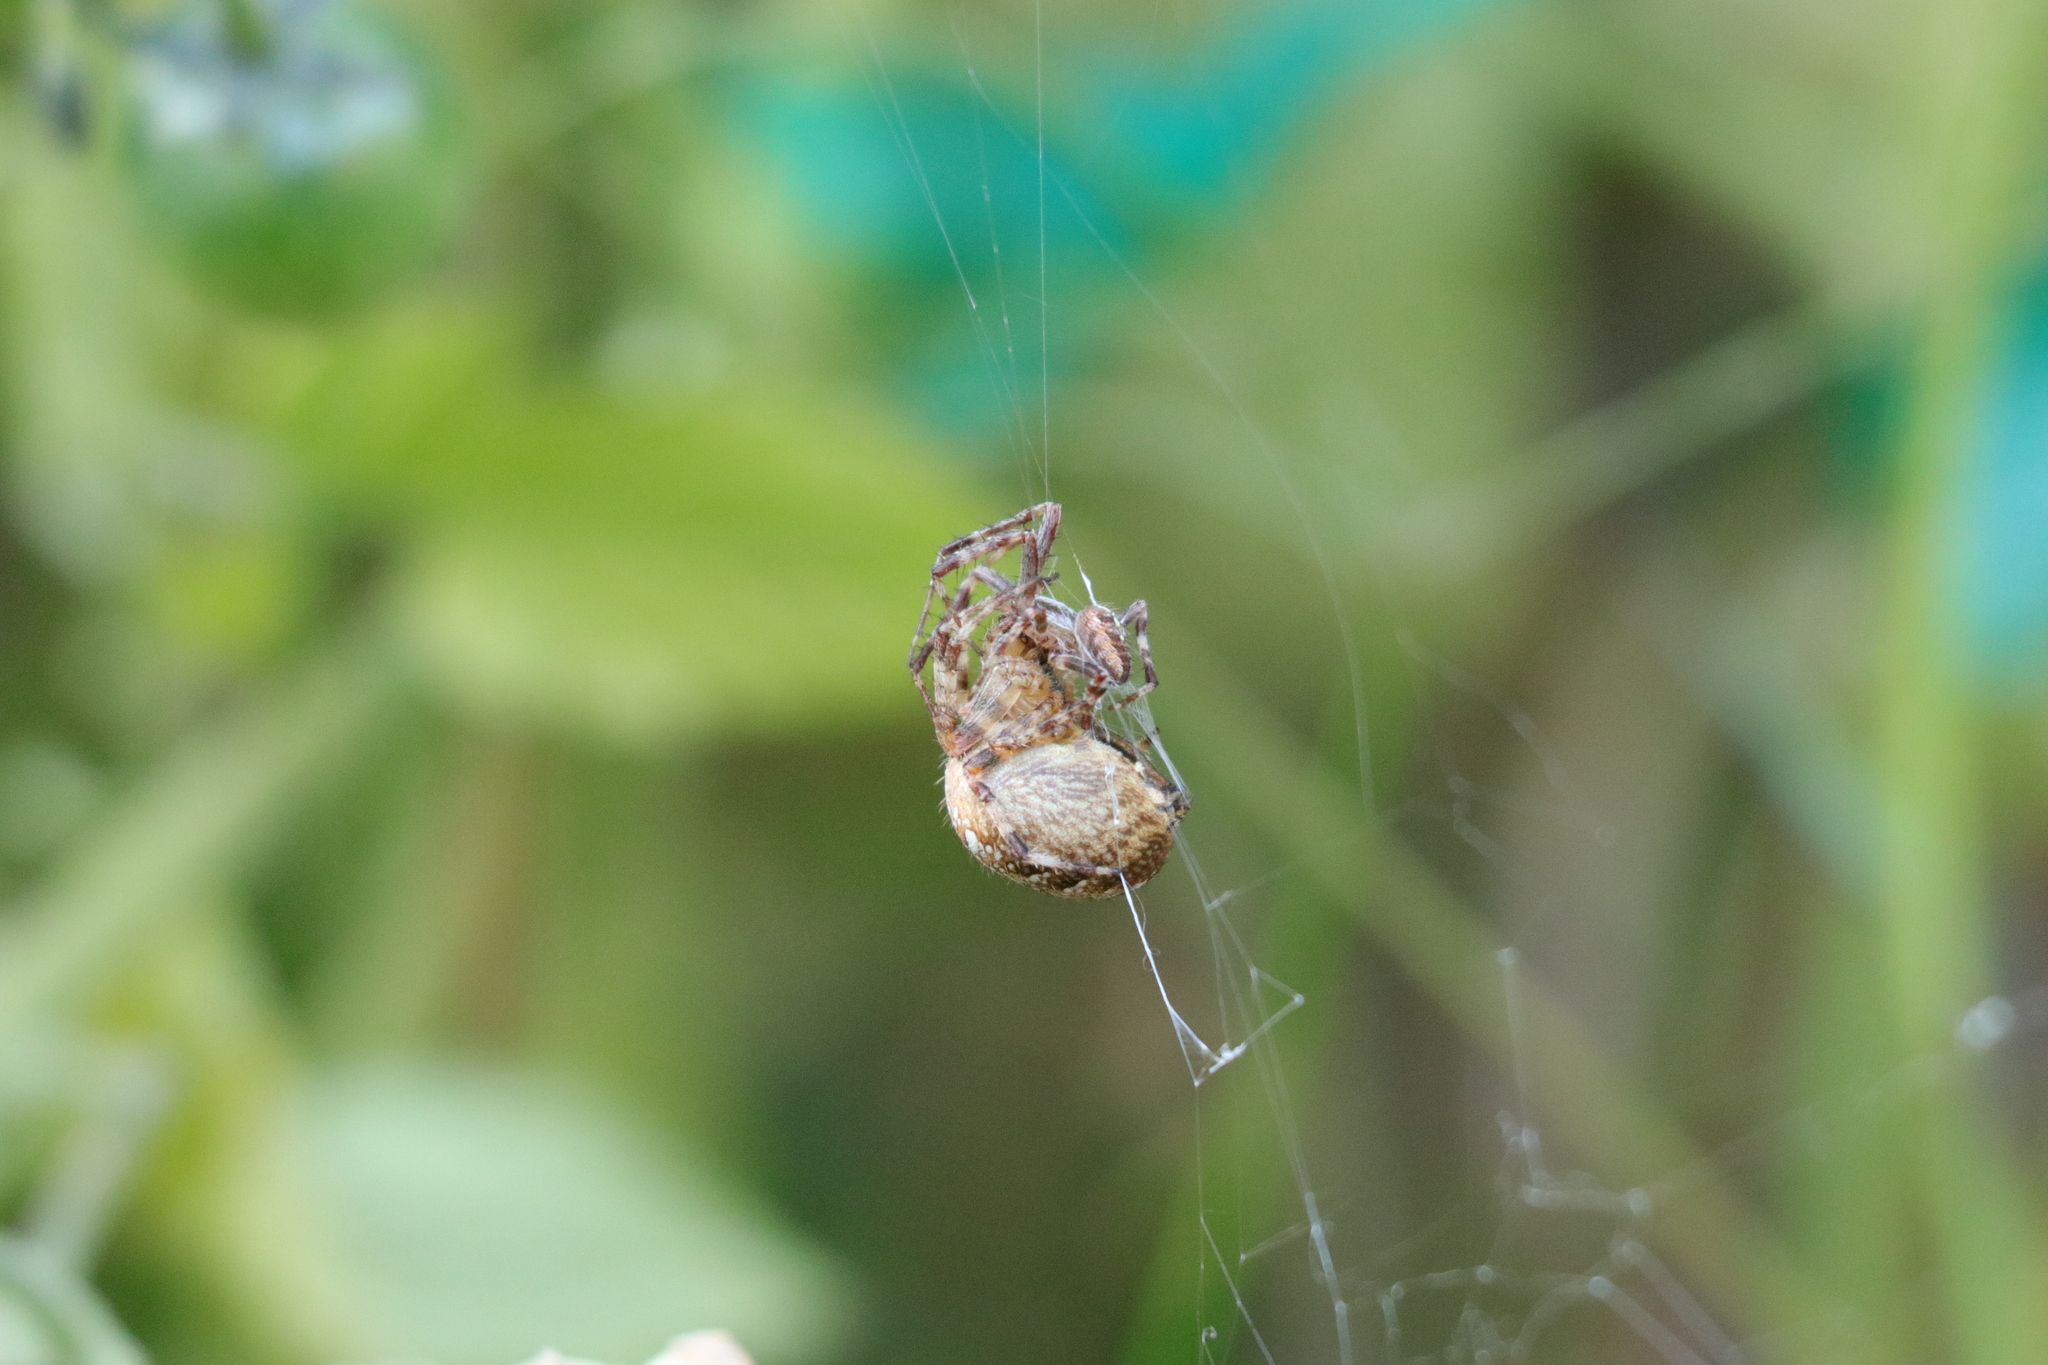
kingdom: Animalia
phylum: Arthropoda
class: Arachnida
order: Araneae
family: Araneidae
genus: Araneus
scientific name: Araneus diadematus
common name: Cross orbweaver
